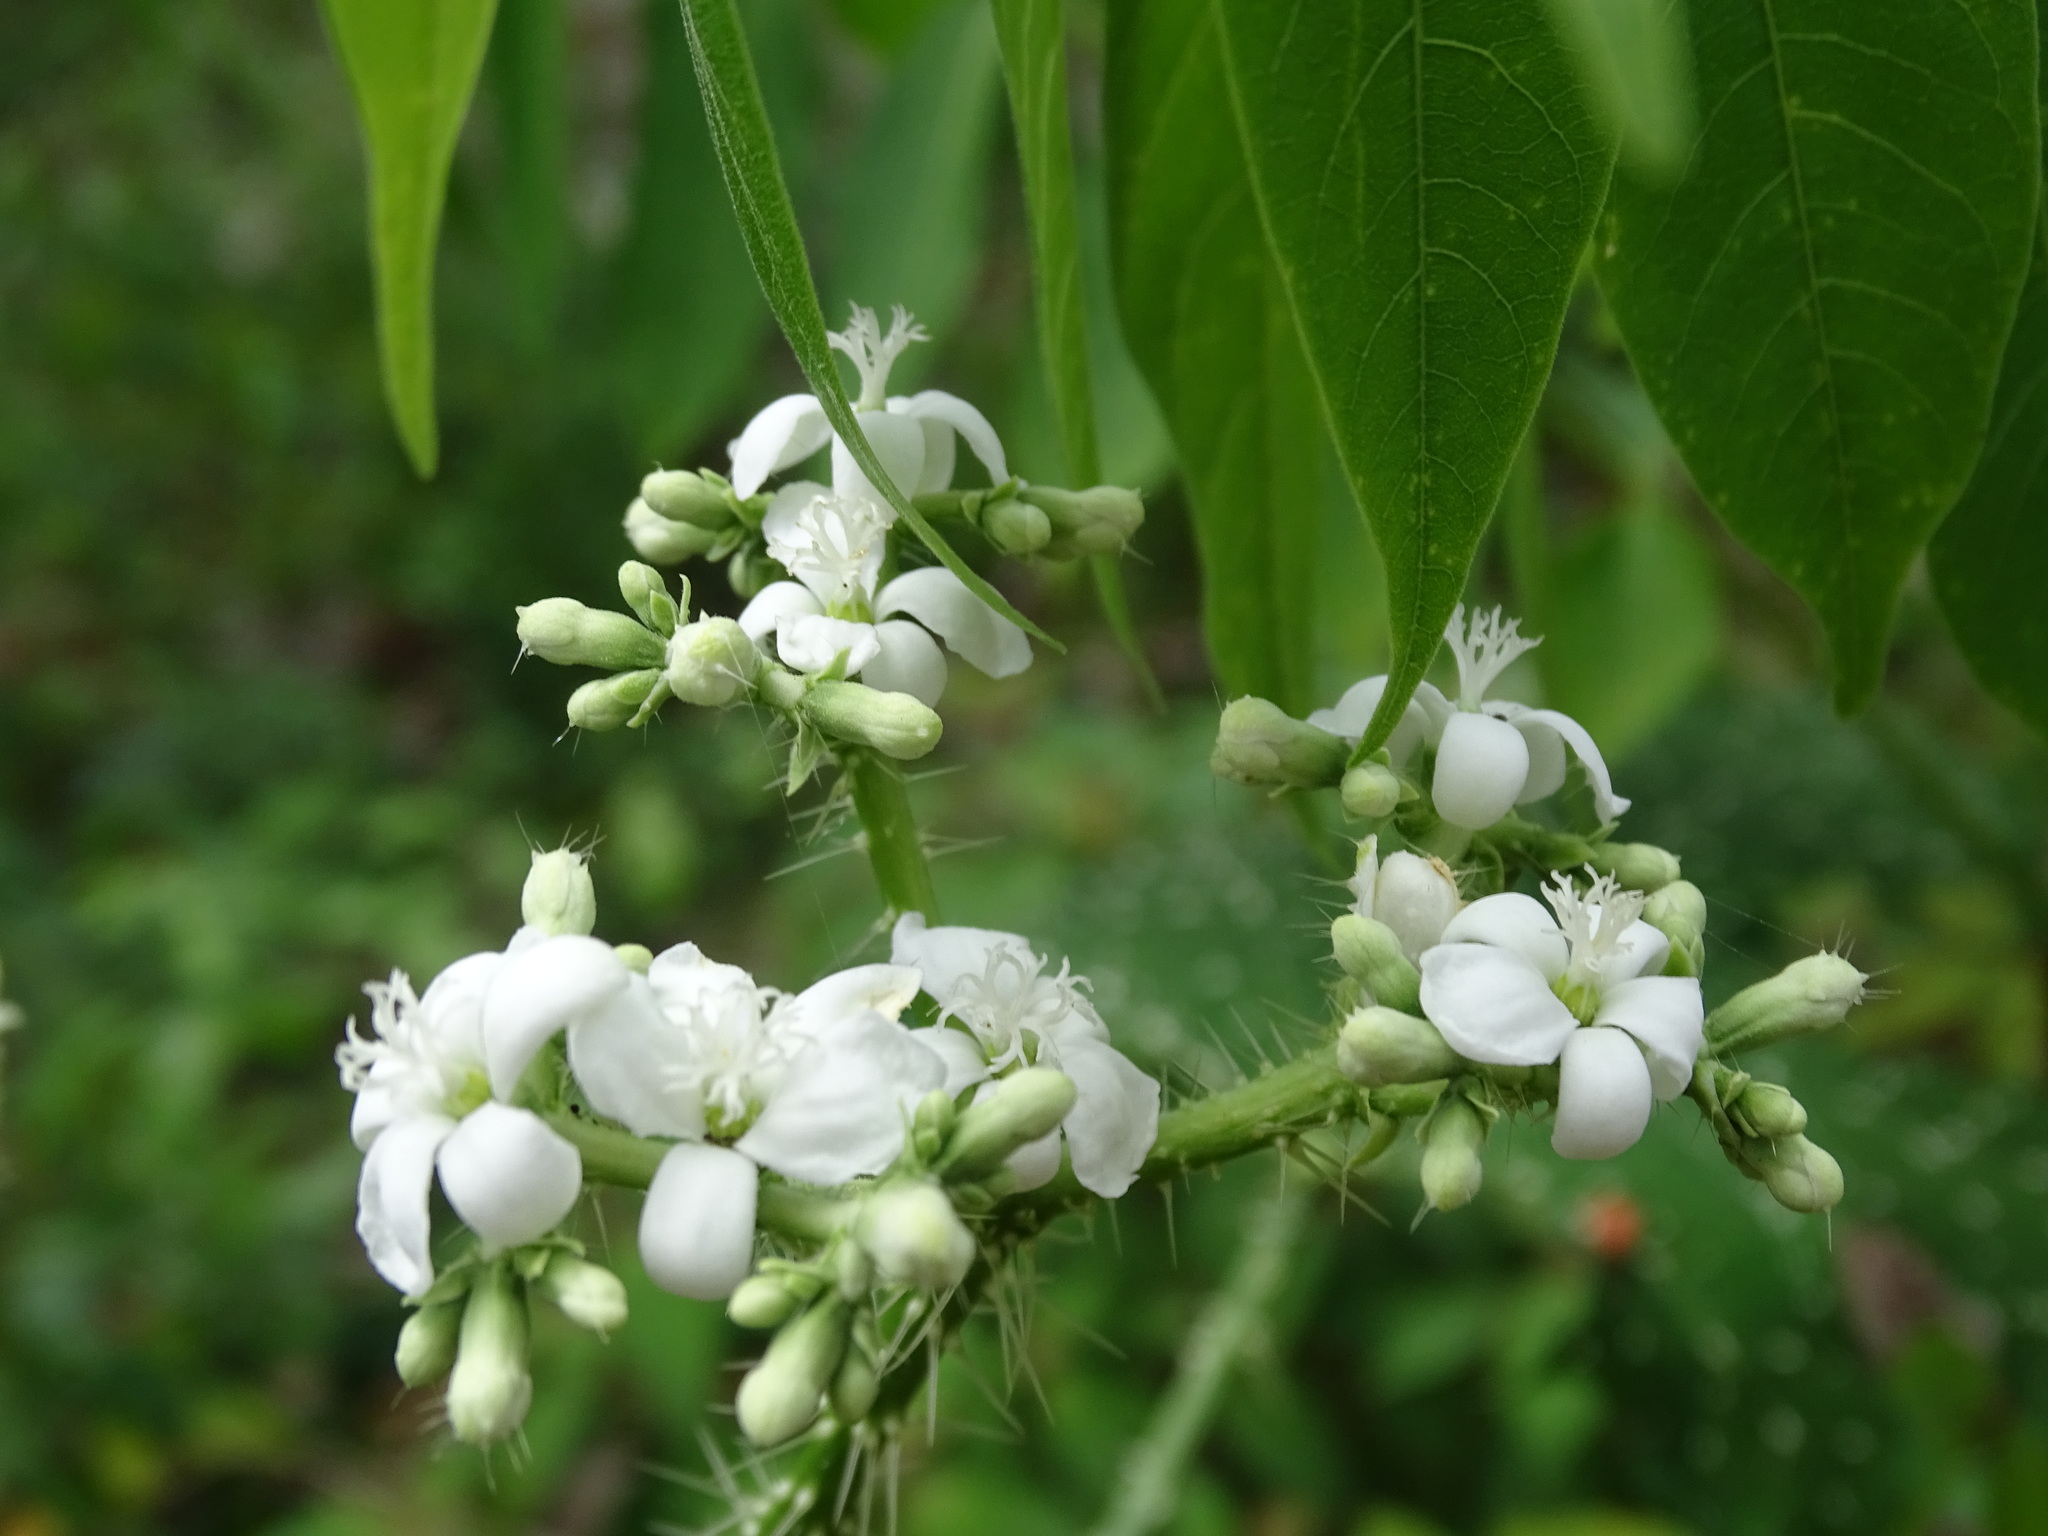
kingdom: Plantae
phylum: Tracheophyta
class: Magnoliopsida
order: Malpighiales
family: Euphorbiaceae
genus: Cnidoscolus
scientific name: Cnidoscolus souzae
